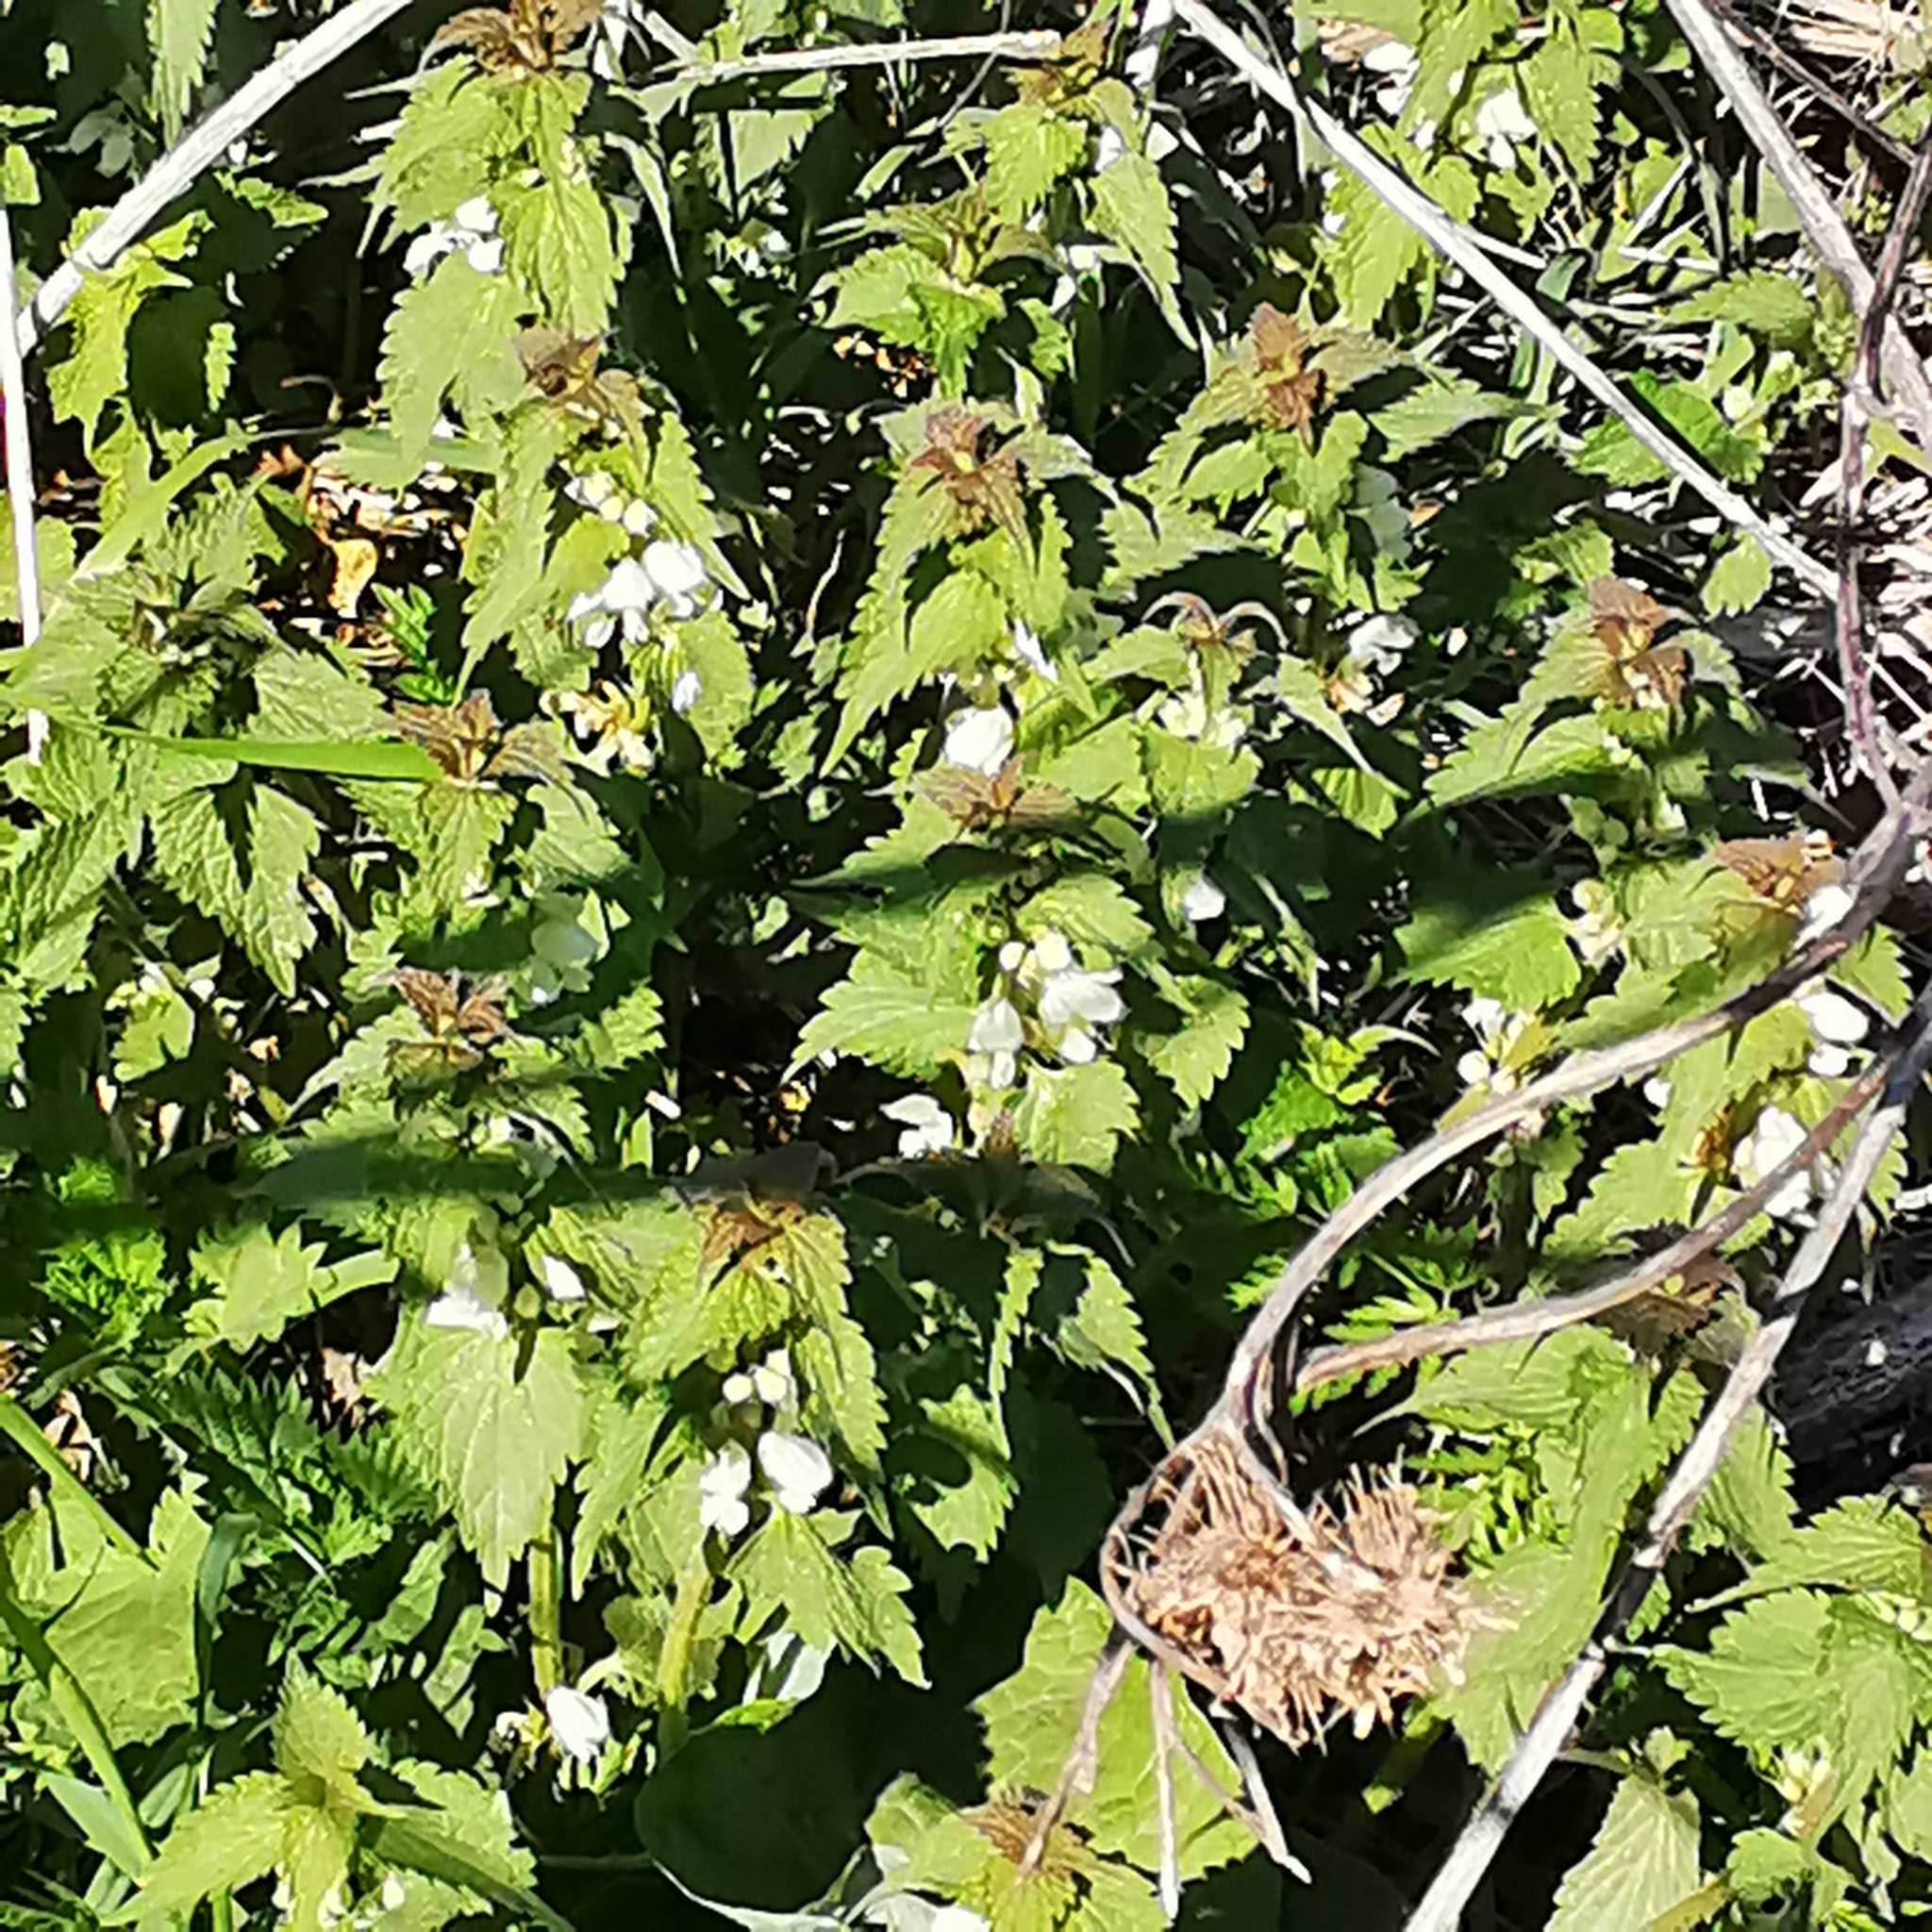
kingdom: Plantae
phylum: Tracheophyta
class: Magnoliopsida
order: Lamiales
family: Lamiaceae
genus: Lamium
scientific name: Lamium album
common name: White dead-nettle
